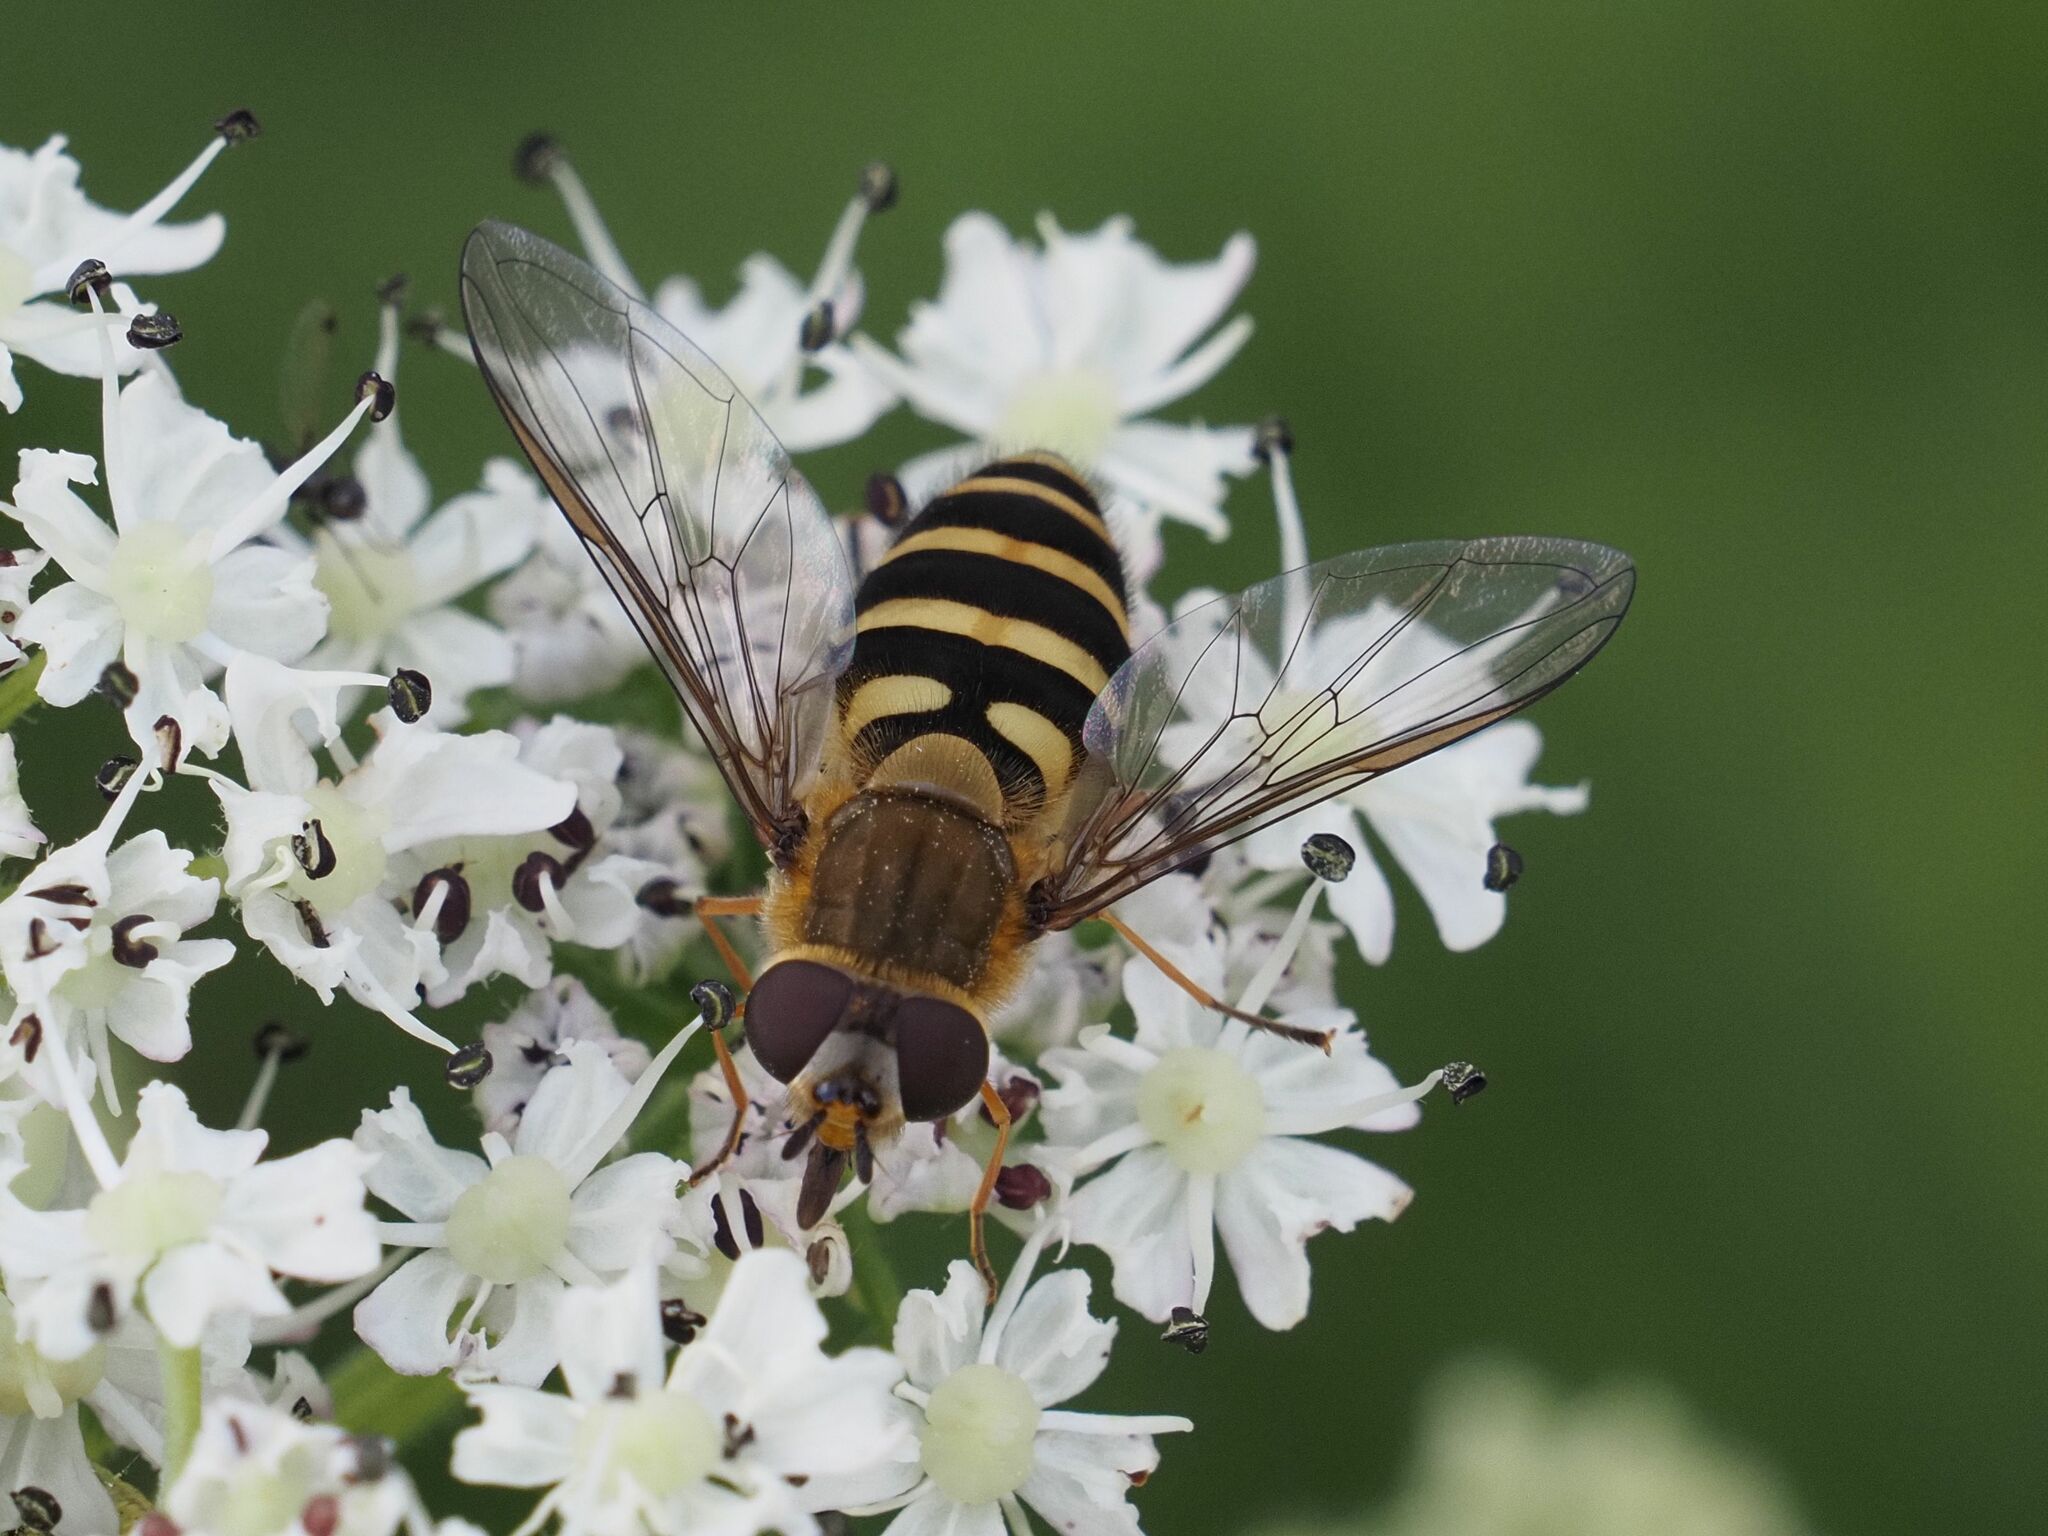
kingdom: Animalia
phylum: Arthropoda
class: Insecta
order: Diptera
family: Syrphidae
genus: Syrphus
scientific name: Syrphus torvus
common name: Hairy-eyed flower fly
